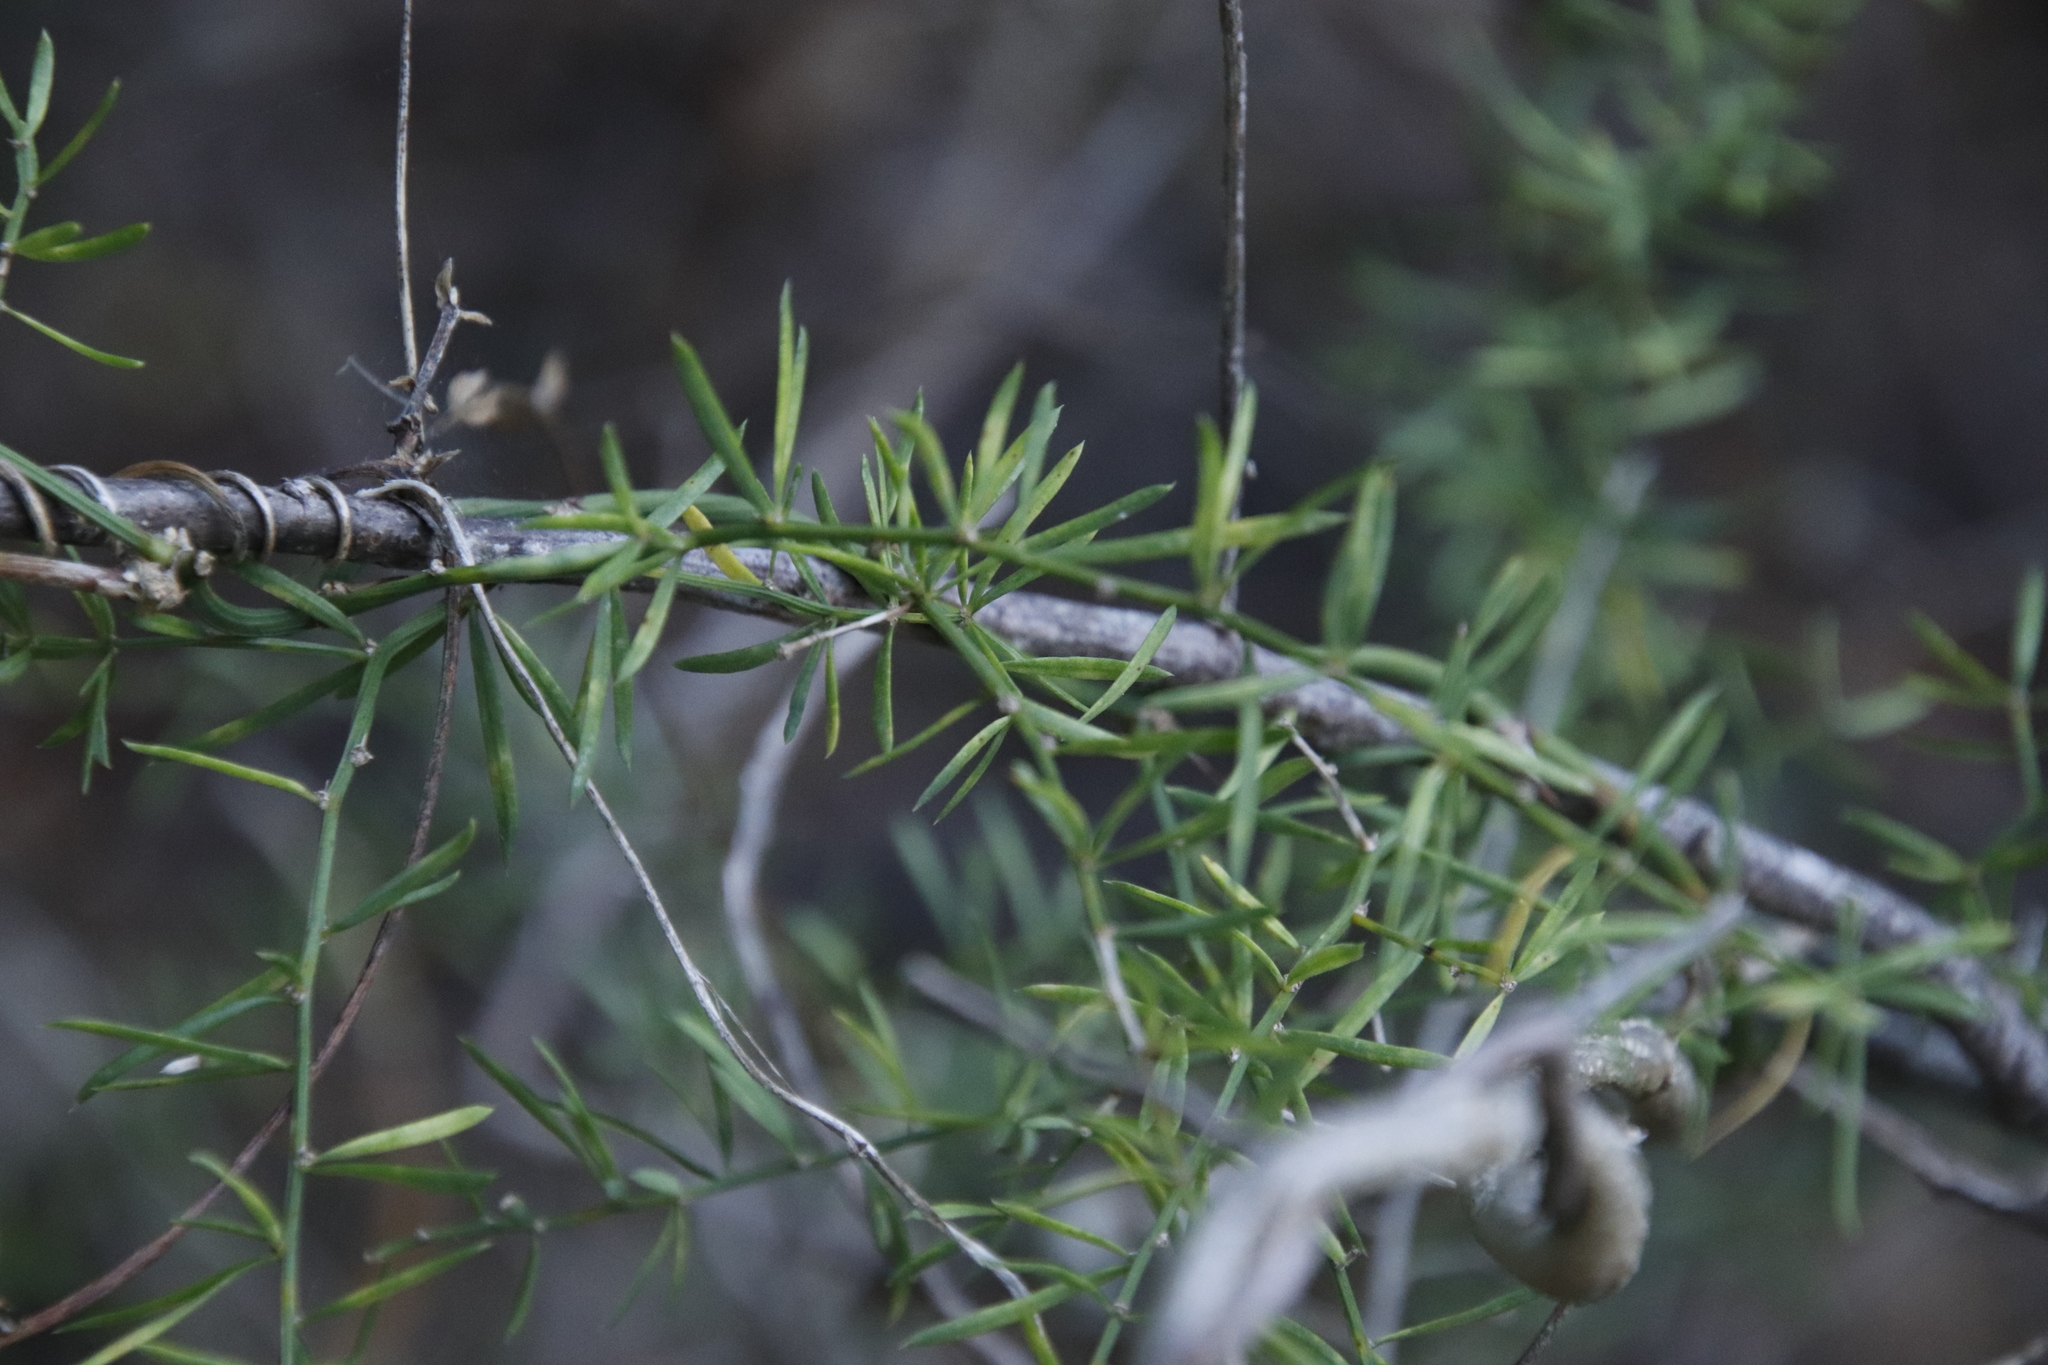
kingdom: Plantae
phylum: Tracheophyta
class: Liliopsida
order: Asparagales
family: Asparagaceae
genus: Asparagus
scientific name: Asparagus aethiopicus
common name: Sprenger's asparagus fern
